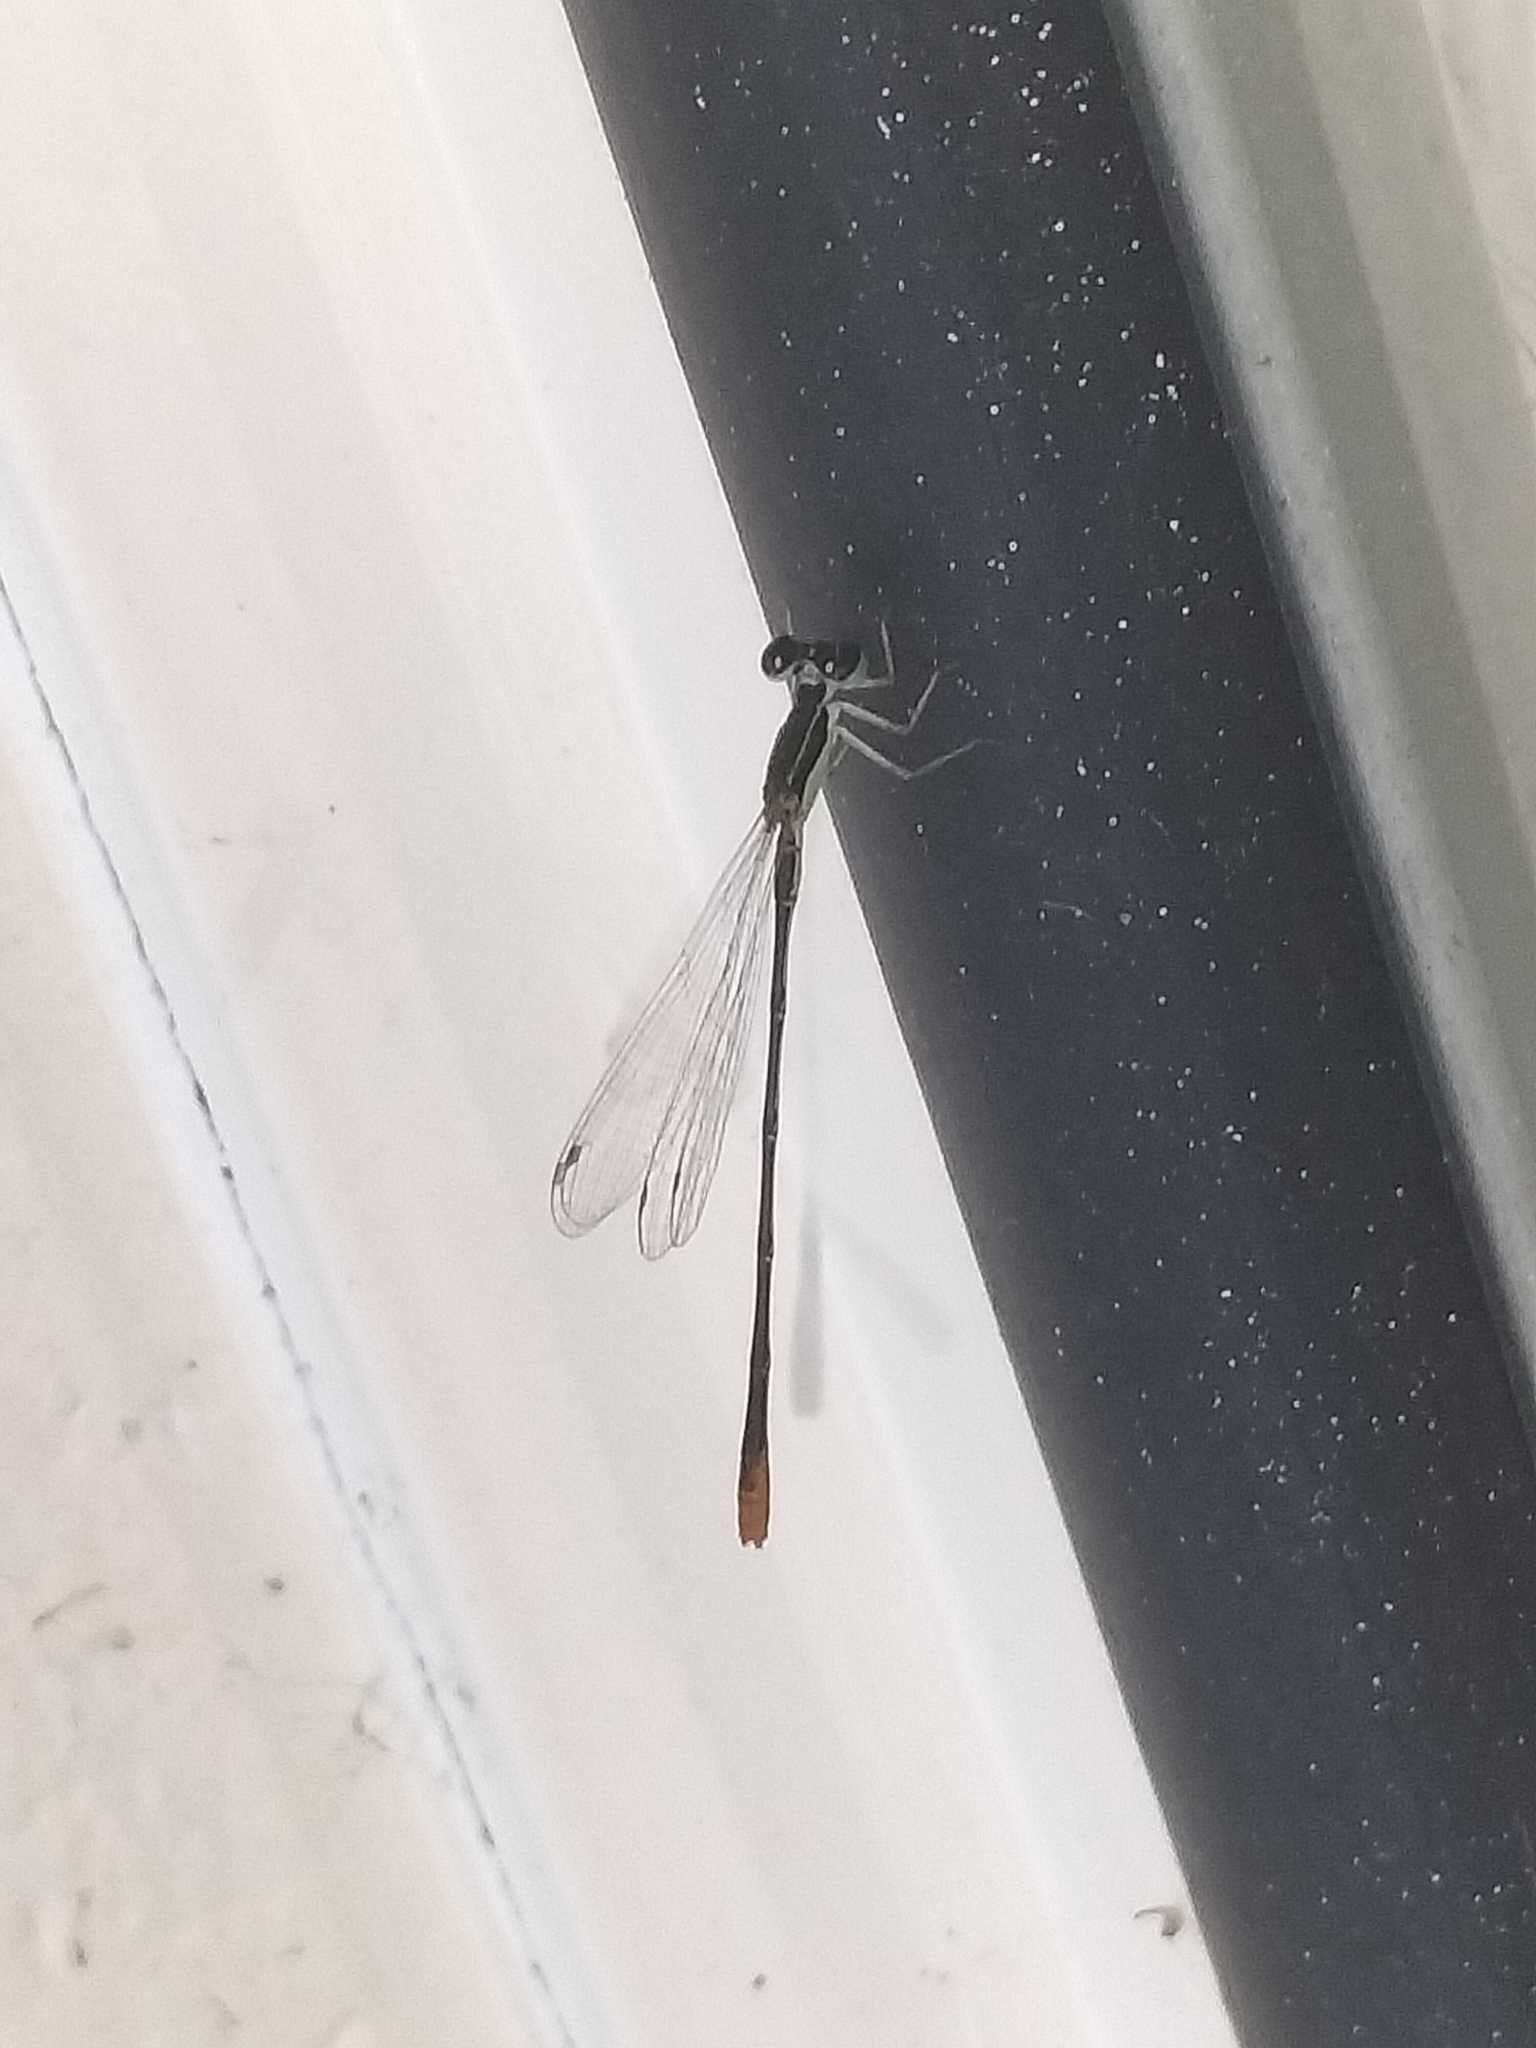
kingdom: Animalia
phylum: Arthropoda
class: Insecta
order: Odonata
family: Coenagrionidae
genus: Agriocnemis
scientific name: Agriocnemis pygmaea
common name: Pygmy wisp
